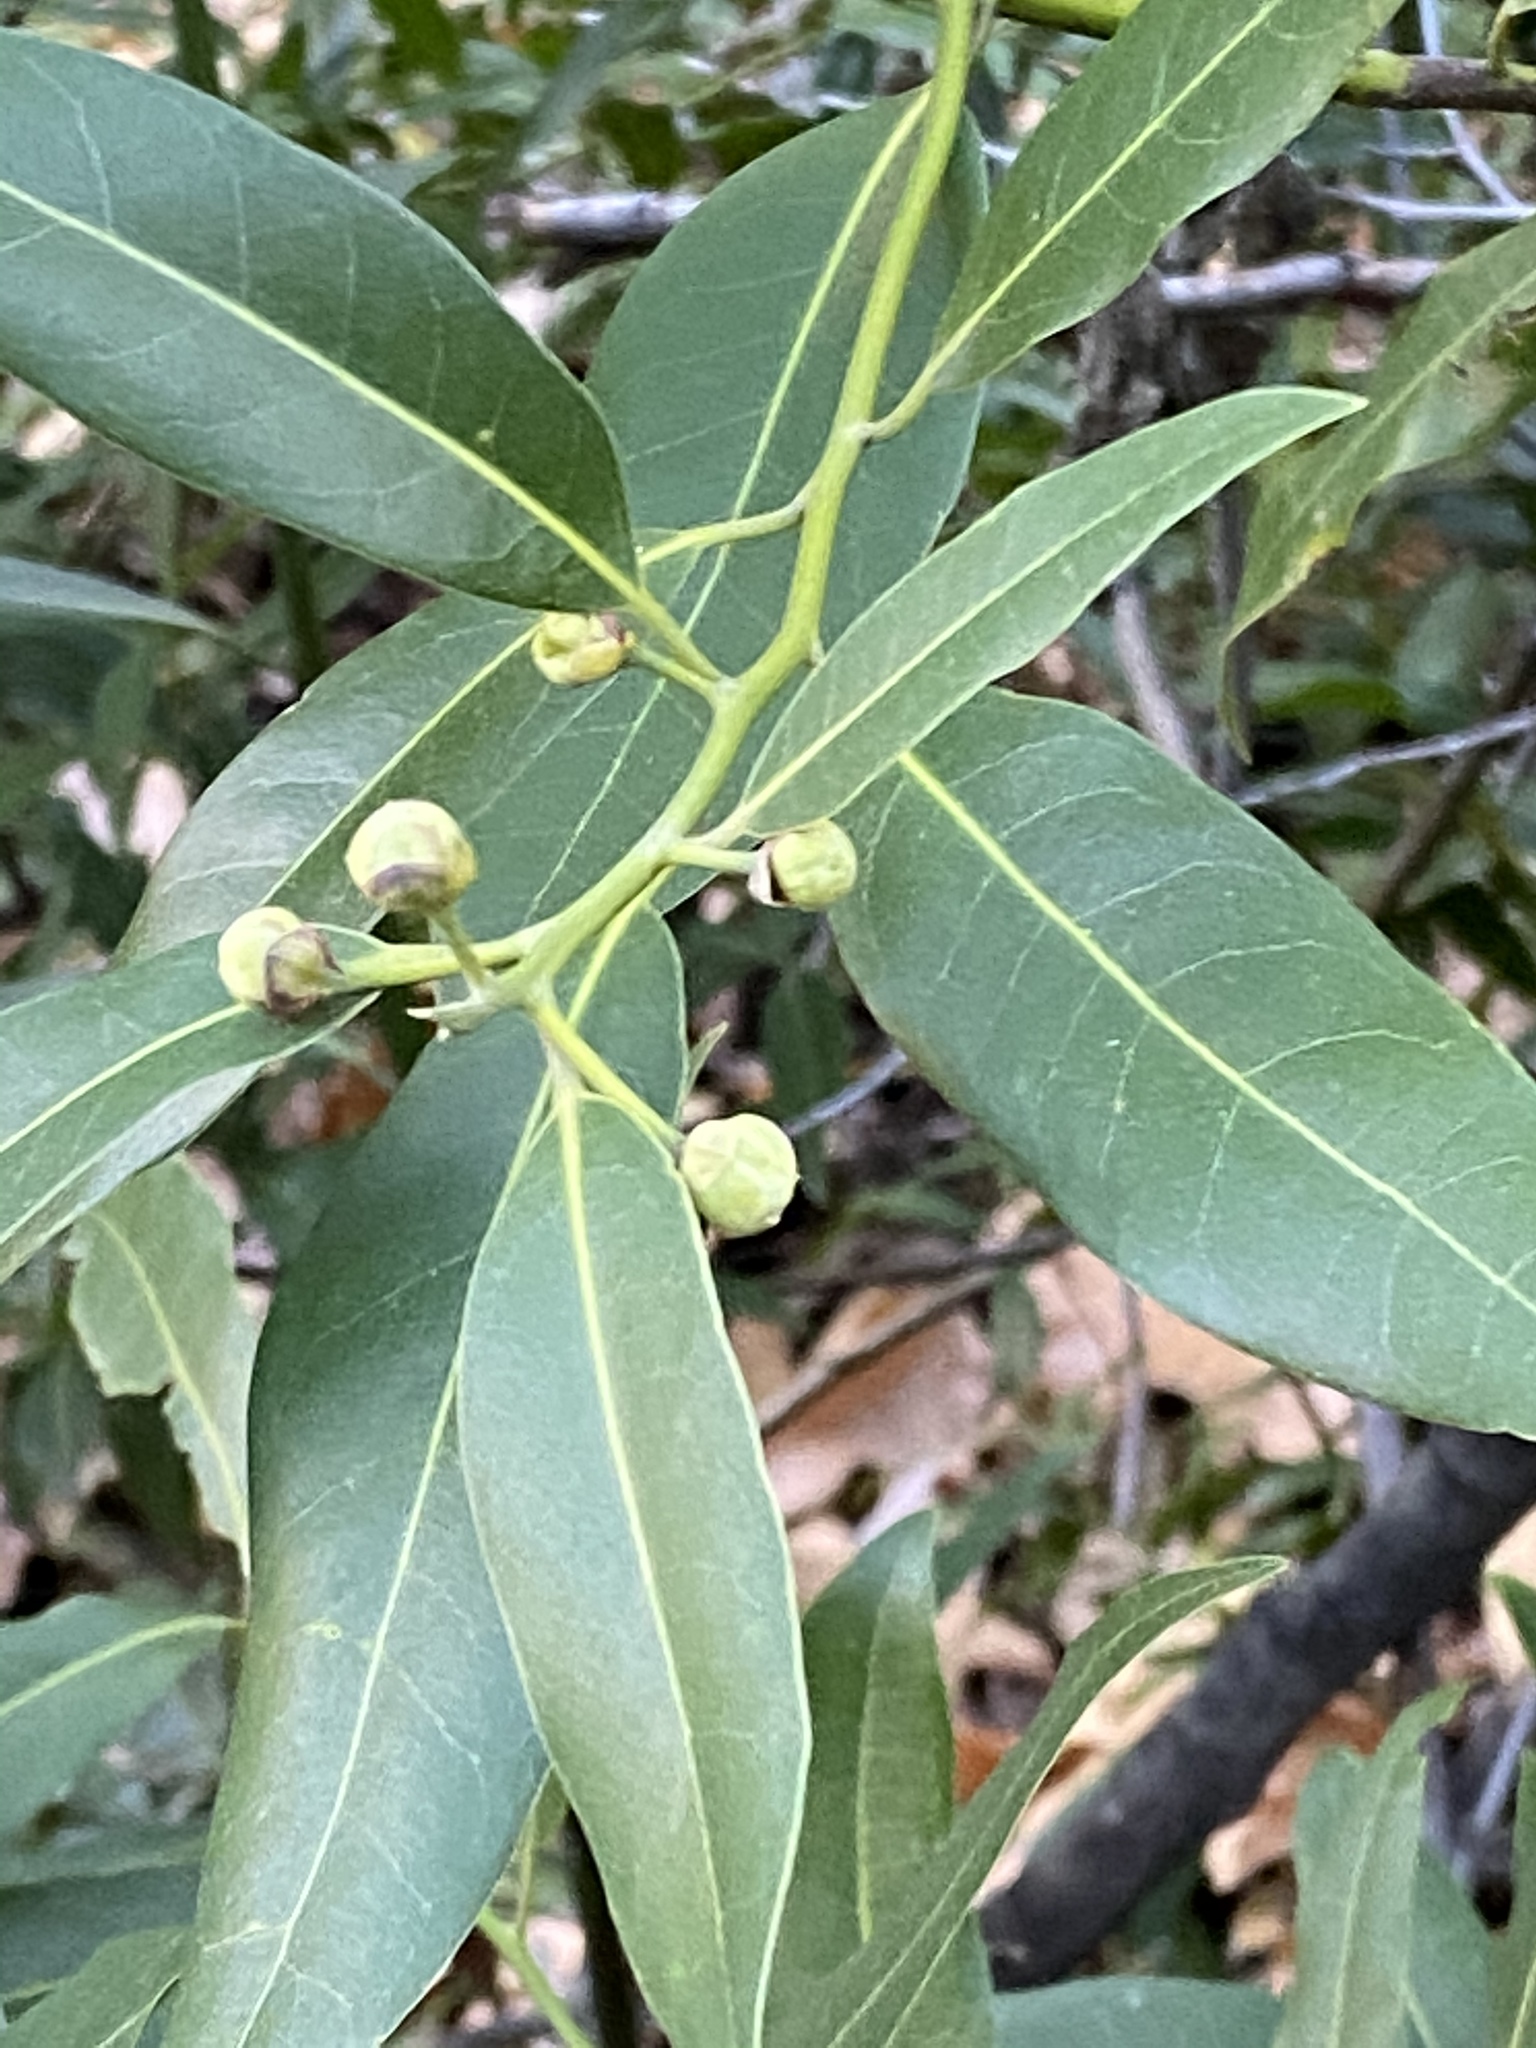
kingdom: Plantae
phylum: Tracheophyta
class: Magnoliopsida
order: Laurales
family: Lauraceae
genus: Umbellularia
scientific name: Umbellularia californica
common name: California bay
